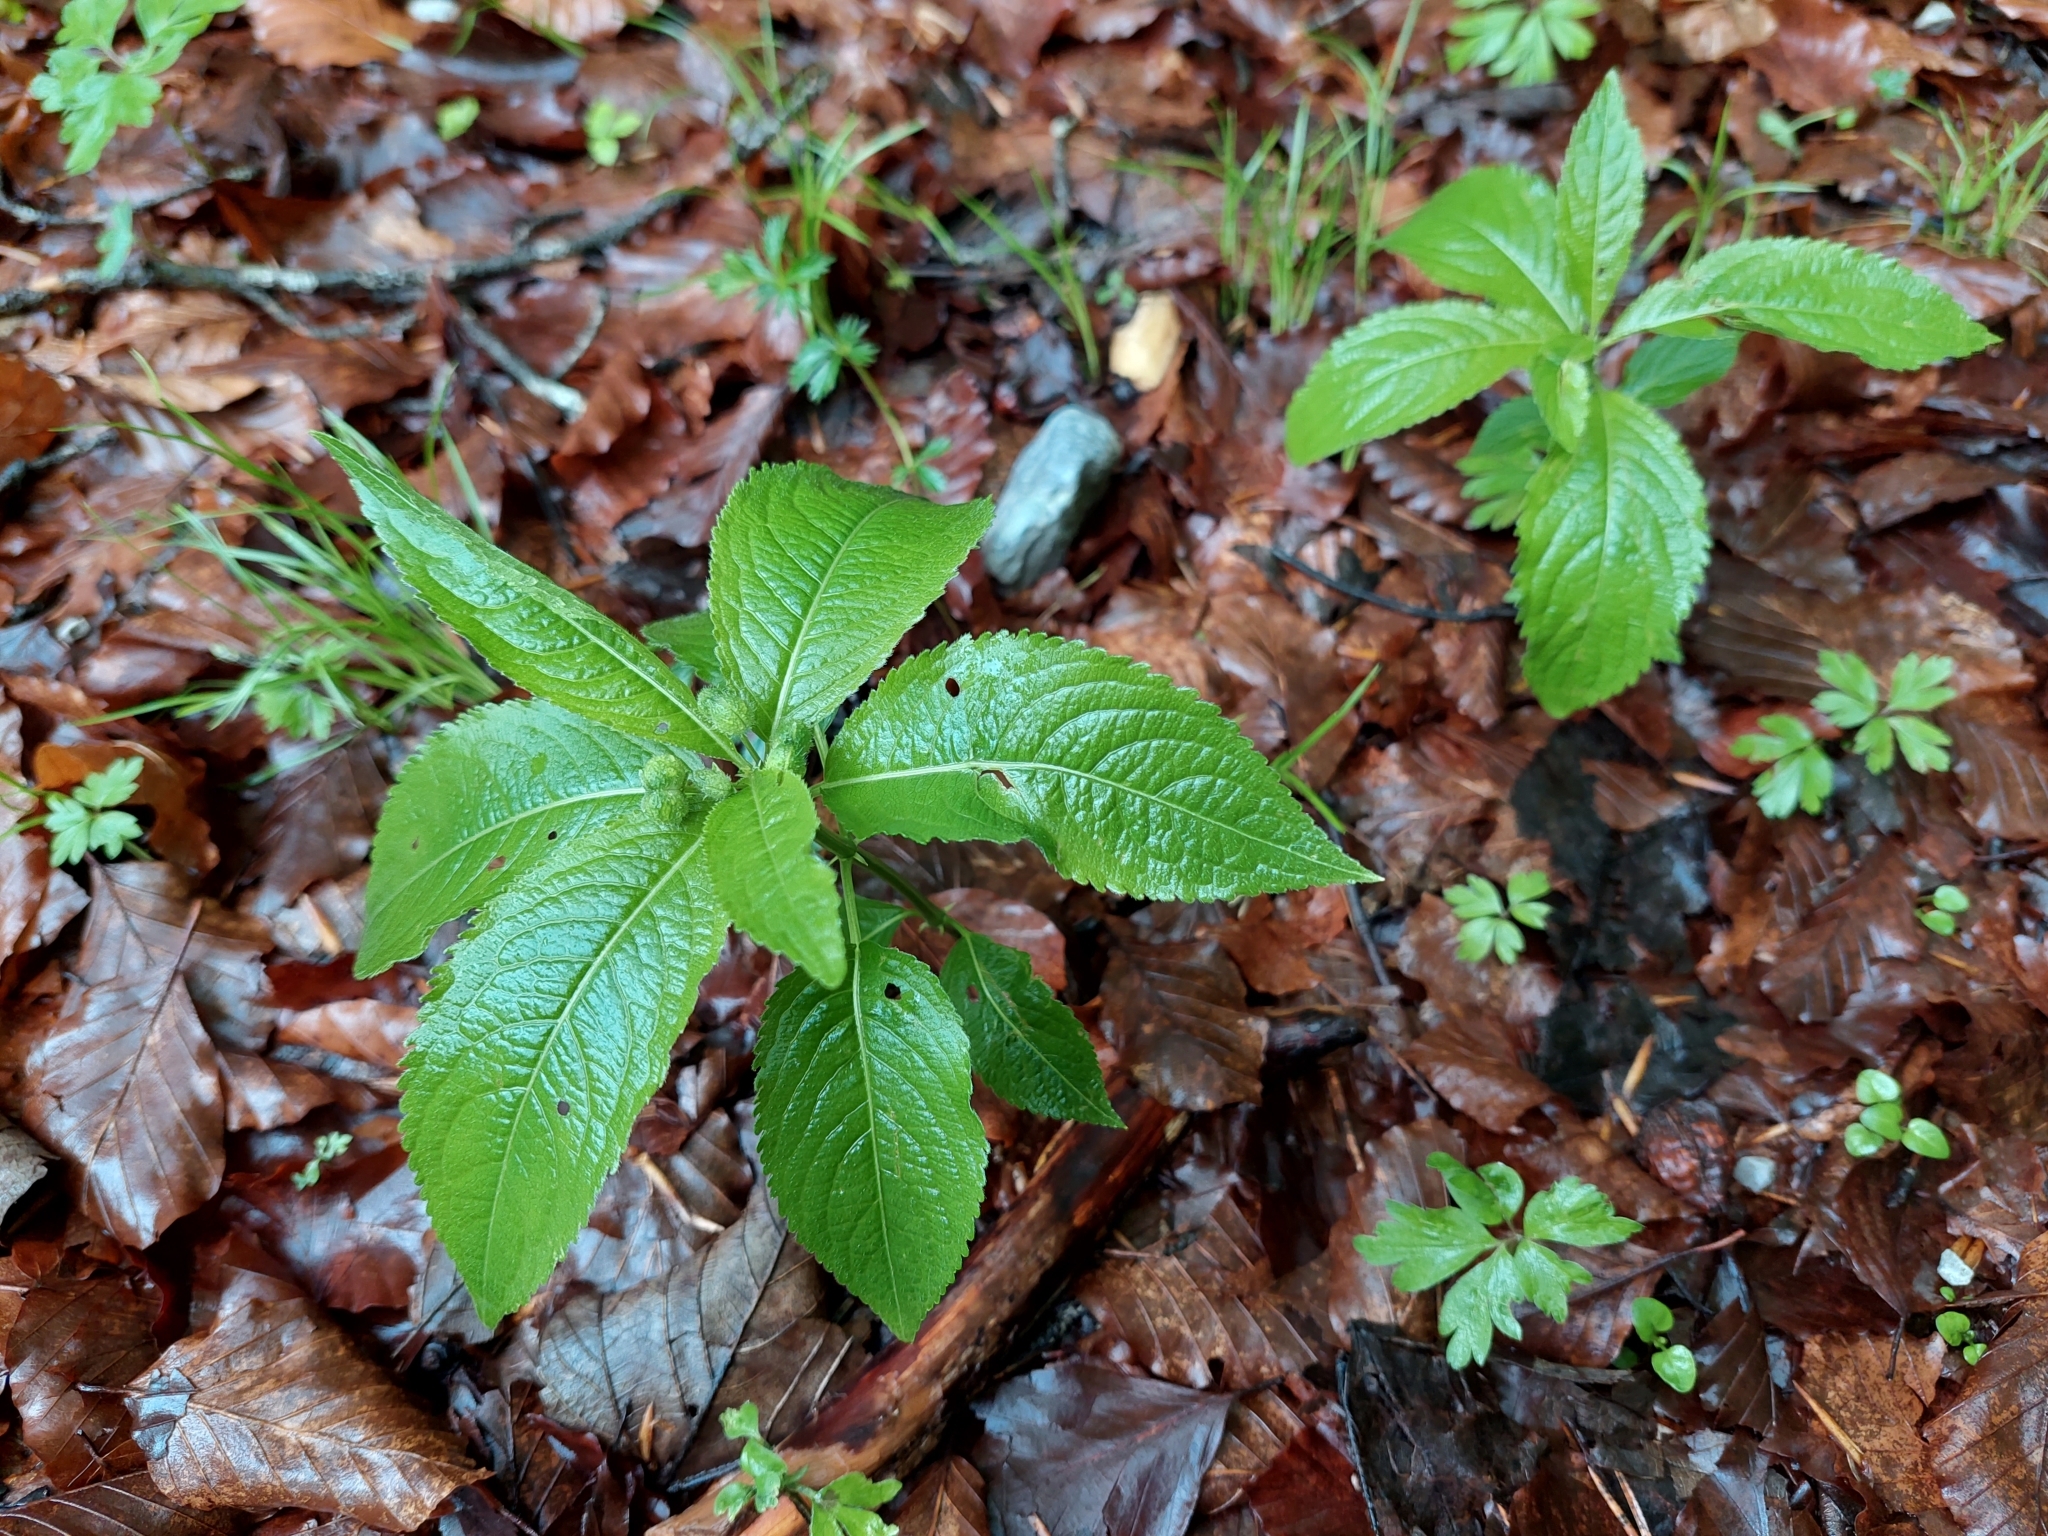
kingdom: Plantae
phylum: Tracheophyta
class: Magnoliopsida
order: Malpighiales
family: Euphorbiaceae
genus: Mercurialis
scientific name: Mercurialis perennis
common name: Dog mercury
